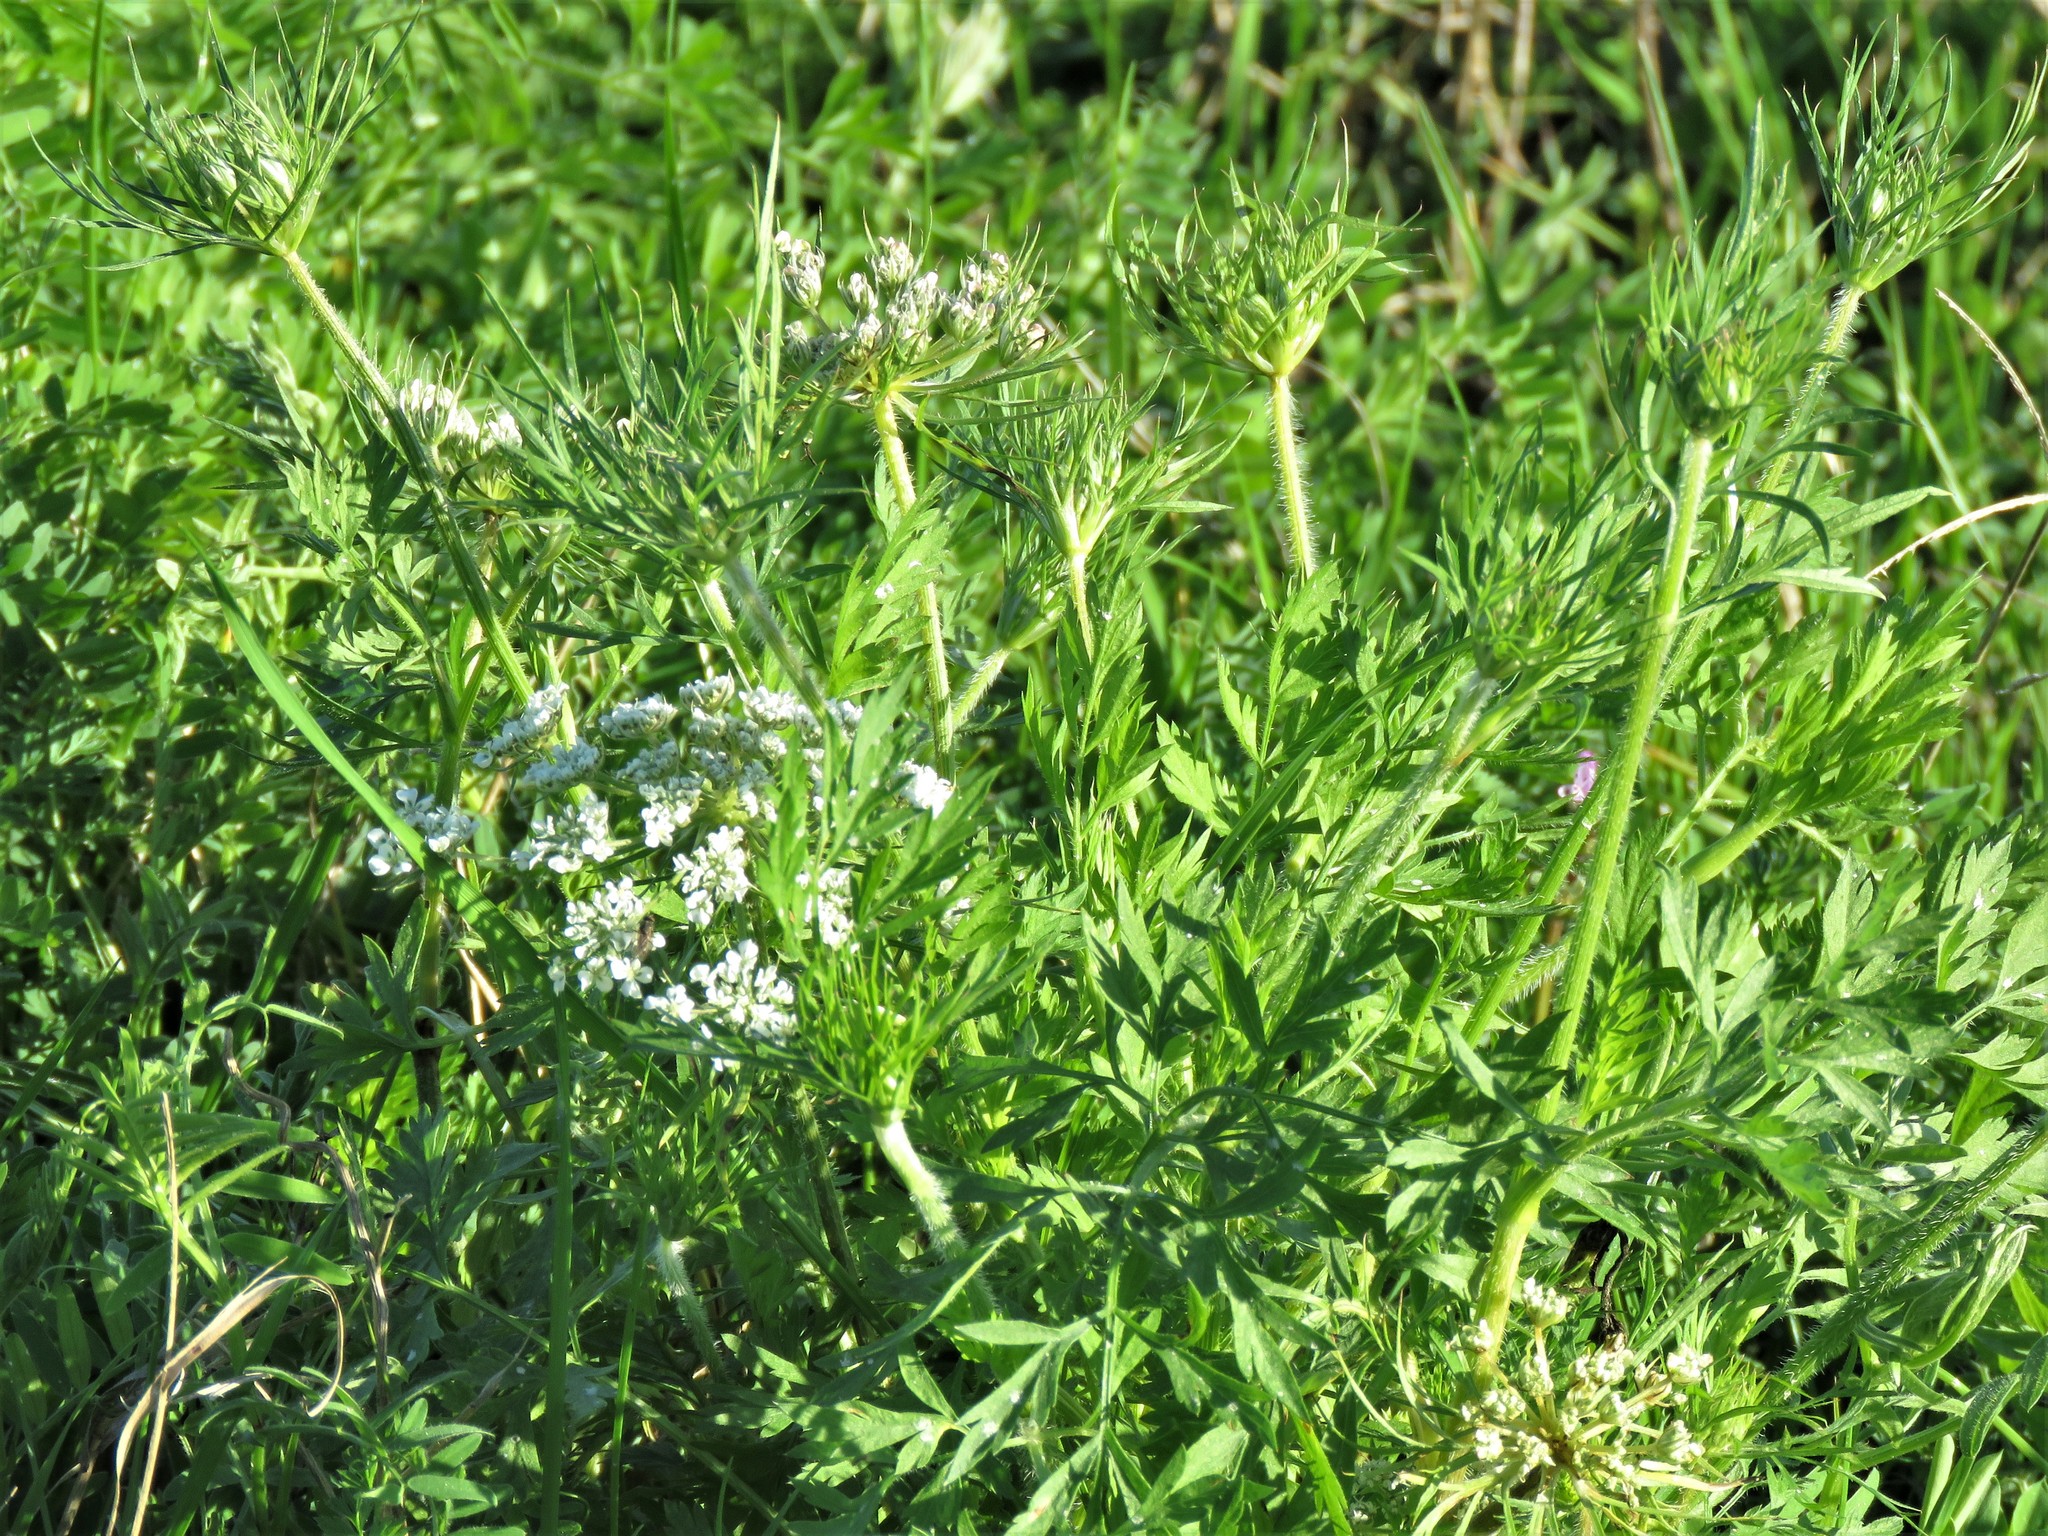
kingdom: Plantae
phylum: Tracheophyta
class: Magnoliopsida
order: Apiales
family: Apiaceae
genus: Daucus
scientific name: Daucus carota
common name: Wild carrot
